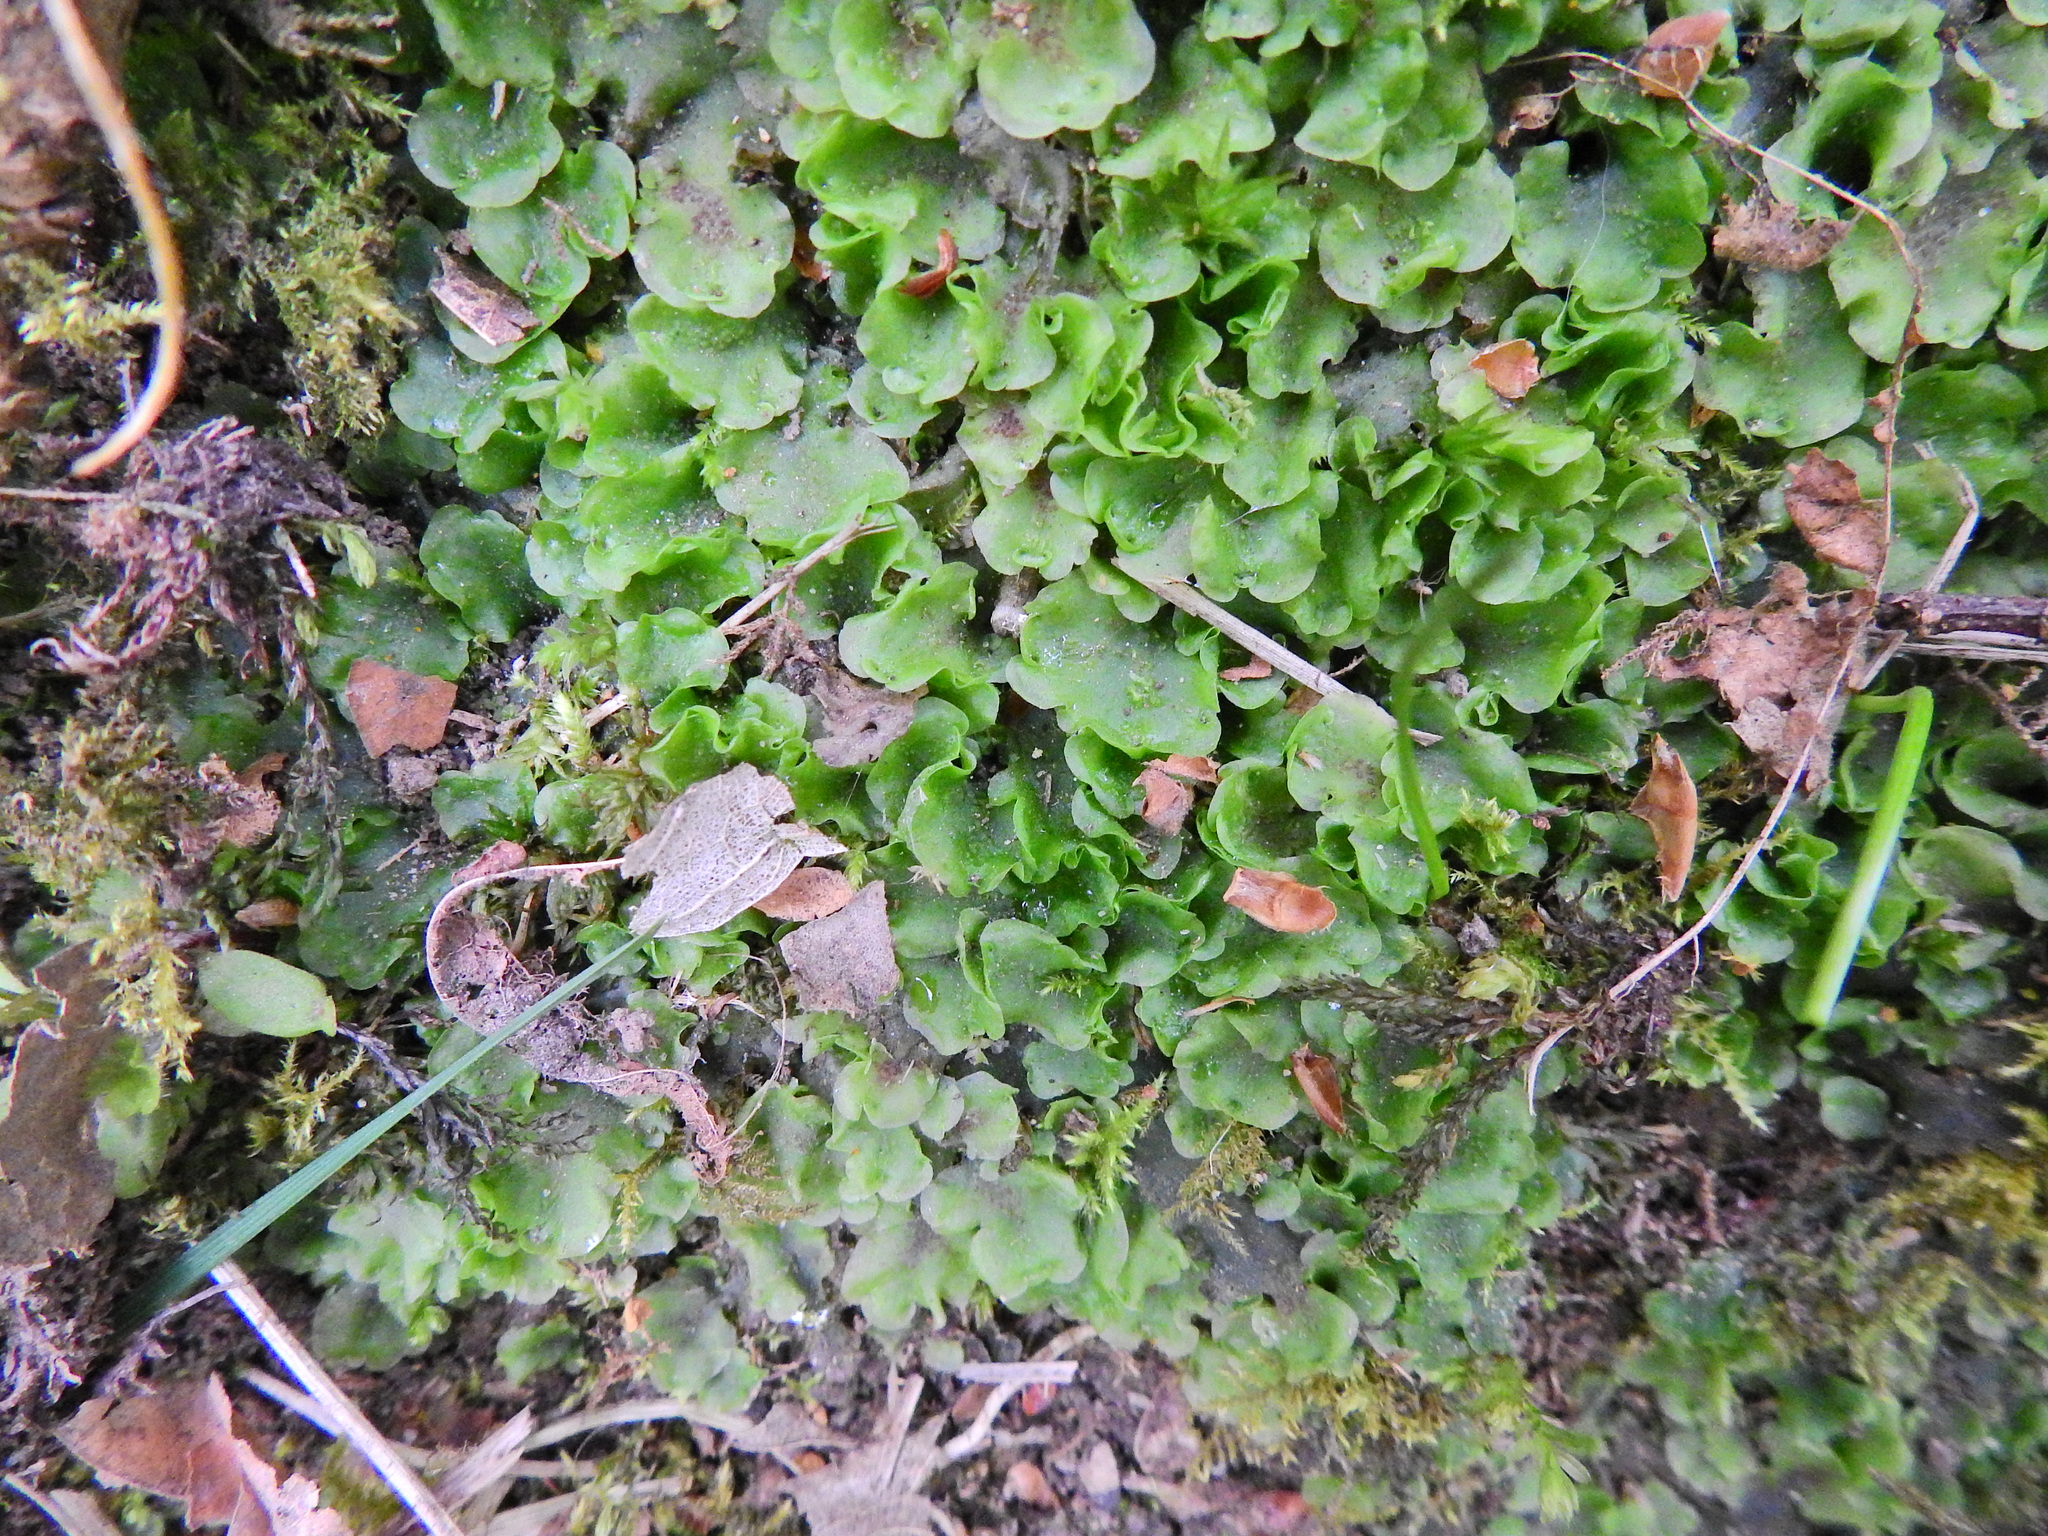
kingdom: Plantae
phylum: Marchantiophyta
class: Jungermanniopsida
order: Pelliales
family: Pelliaceae
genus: Pellia
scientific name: Pellia neesiana
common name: Nees  pellia
